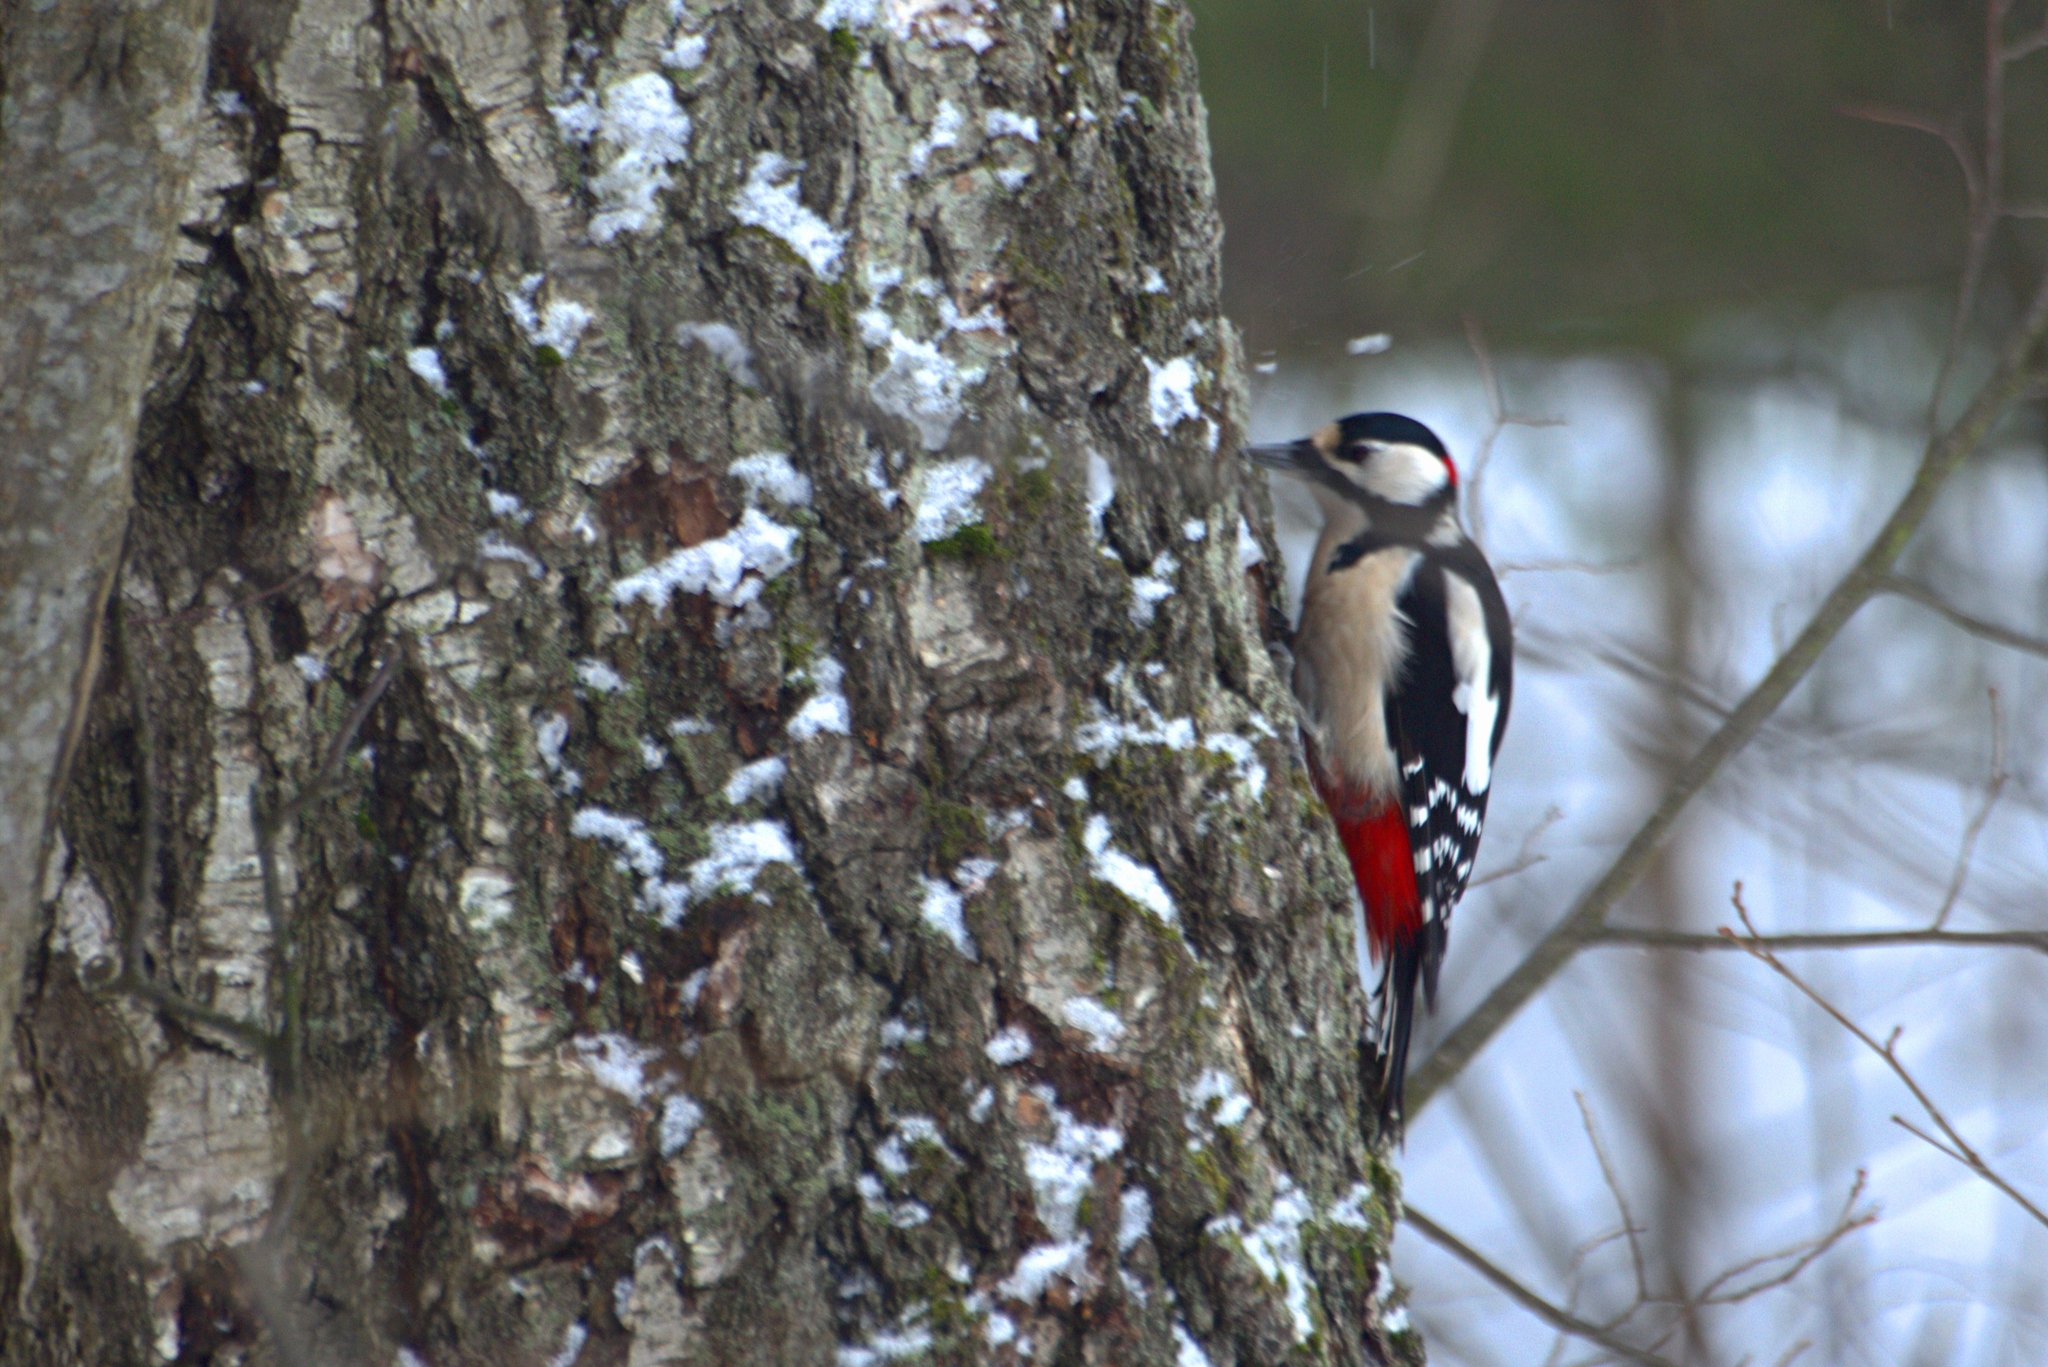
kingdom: Animalia
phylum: Chordata
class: Aves
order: Piciformes
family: Picidae
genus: Dendrocopos
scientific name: Dendrocopos major
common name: Great spotted woodpecker
